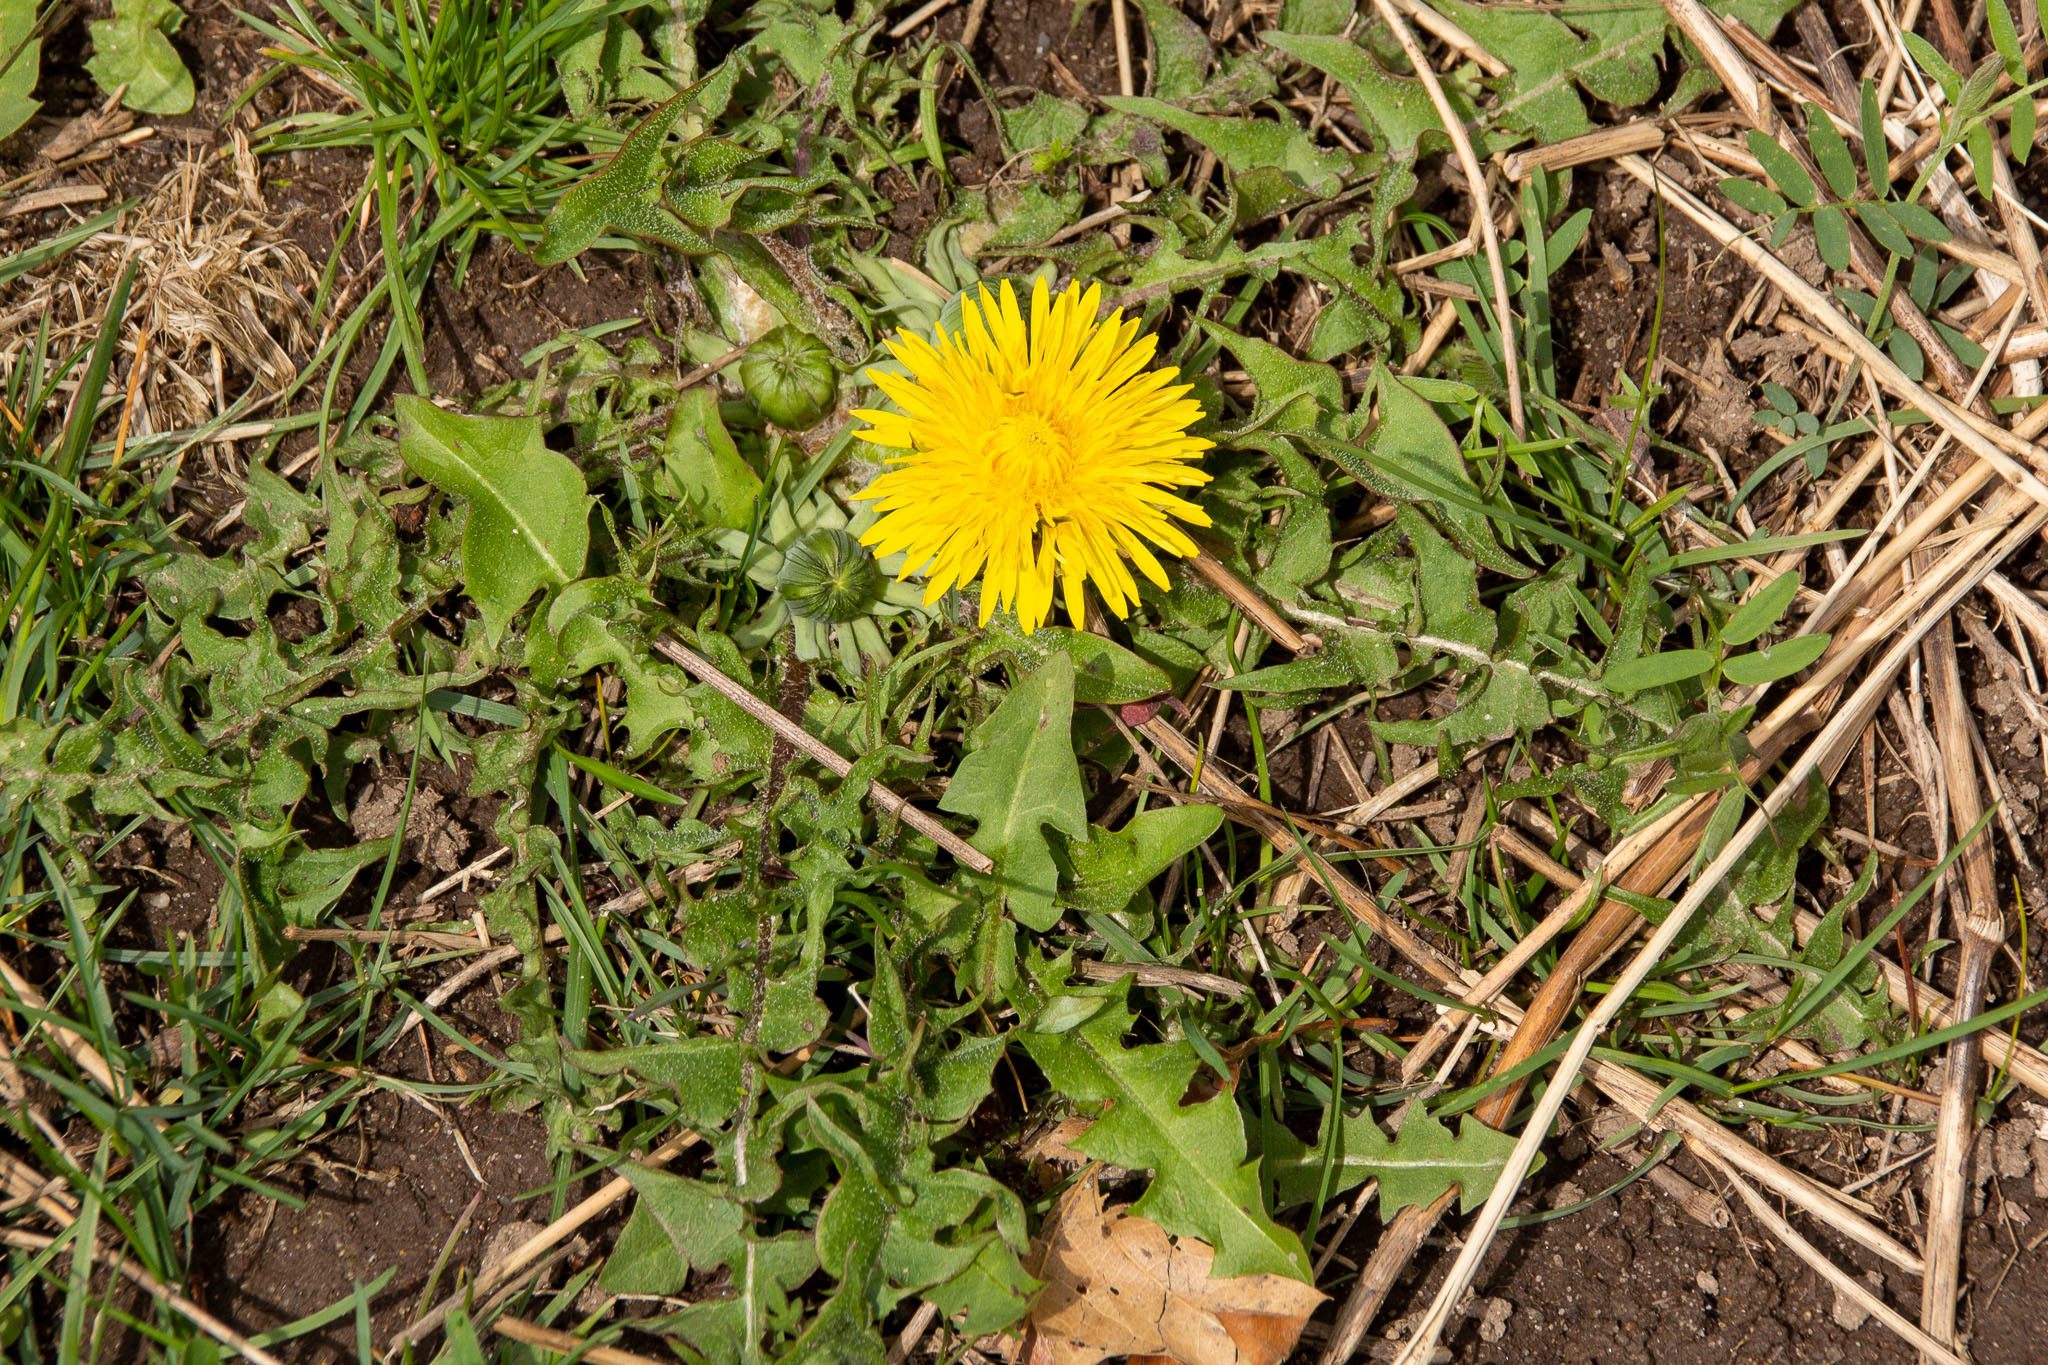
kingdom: Plantae
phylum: Tracheophyta
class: Magnoliopsida
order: Asterales
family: Asteraceae
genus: Taraxacum
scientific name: Taraxacum officinale
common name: Common dandelion
